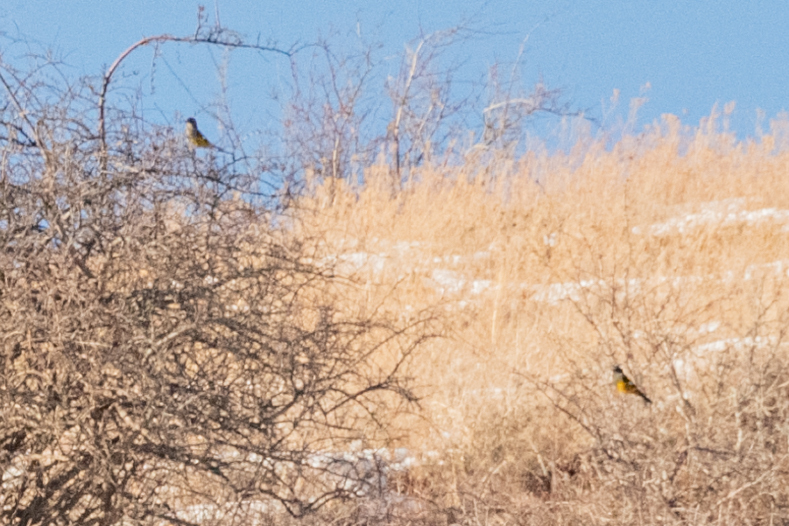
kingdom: Animalia
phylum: Chordata
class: Aves
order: Passeriformes
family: Fringillidae
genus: Mycerobas
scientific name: Mycerobas carnipes
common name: White-winged grosbeak
